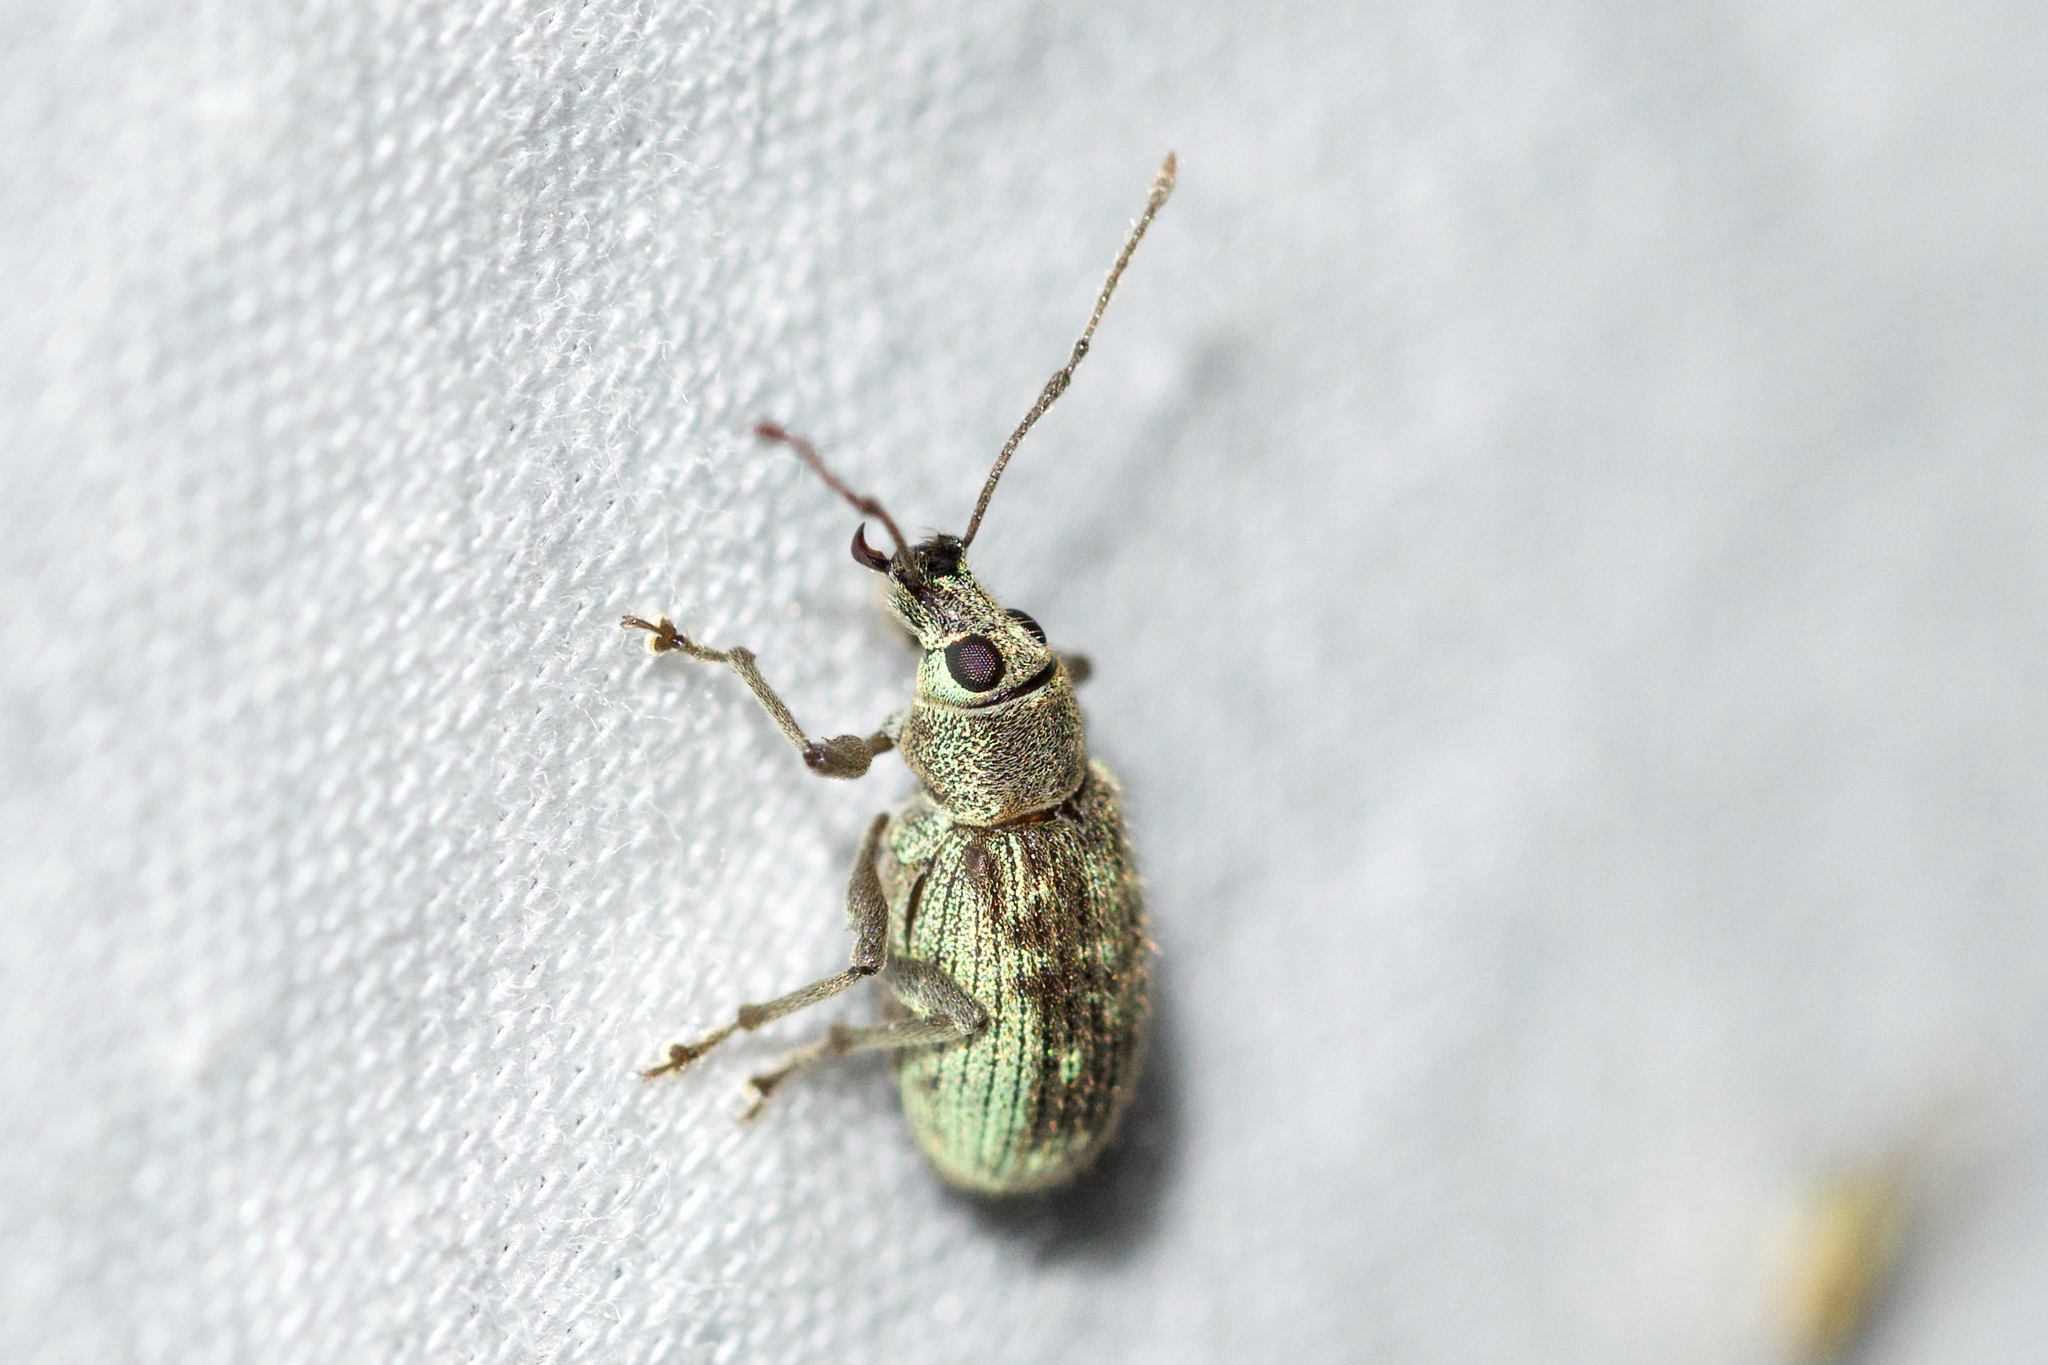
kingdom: Animalia
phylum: Arthropoda
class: Insecta
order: Coleoptera
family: Curculionidae
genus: Cyrtepistomus
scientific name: Cyrtepistomus castaneus
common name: Weevil
